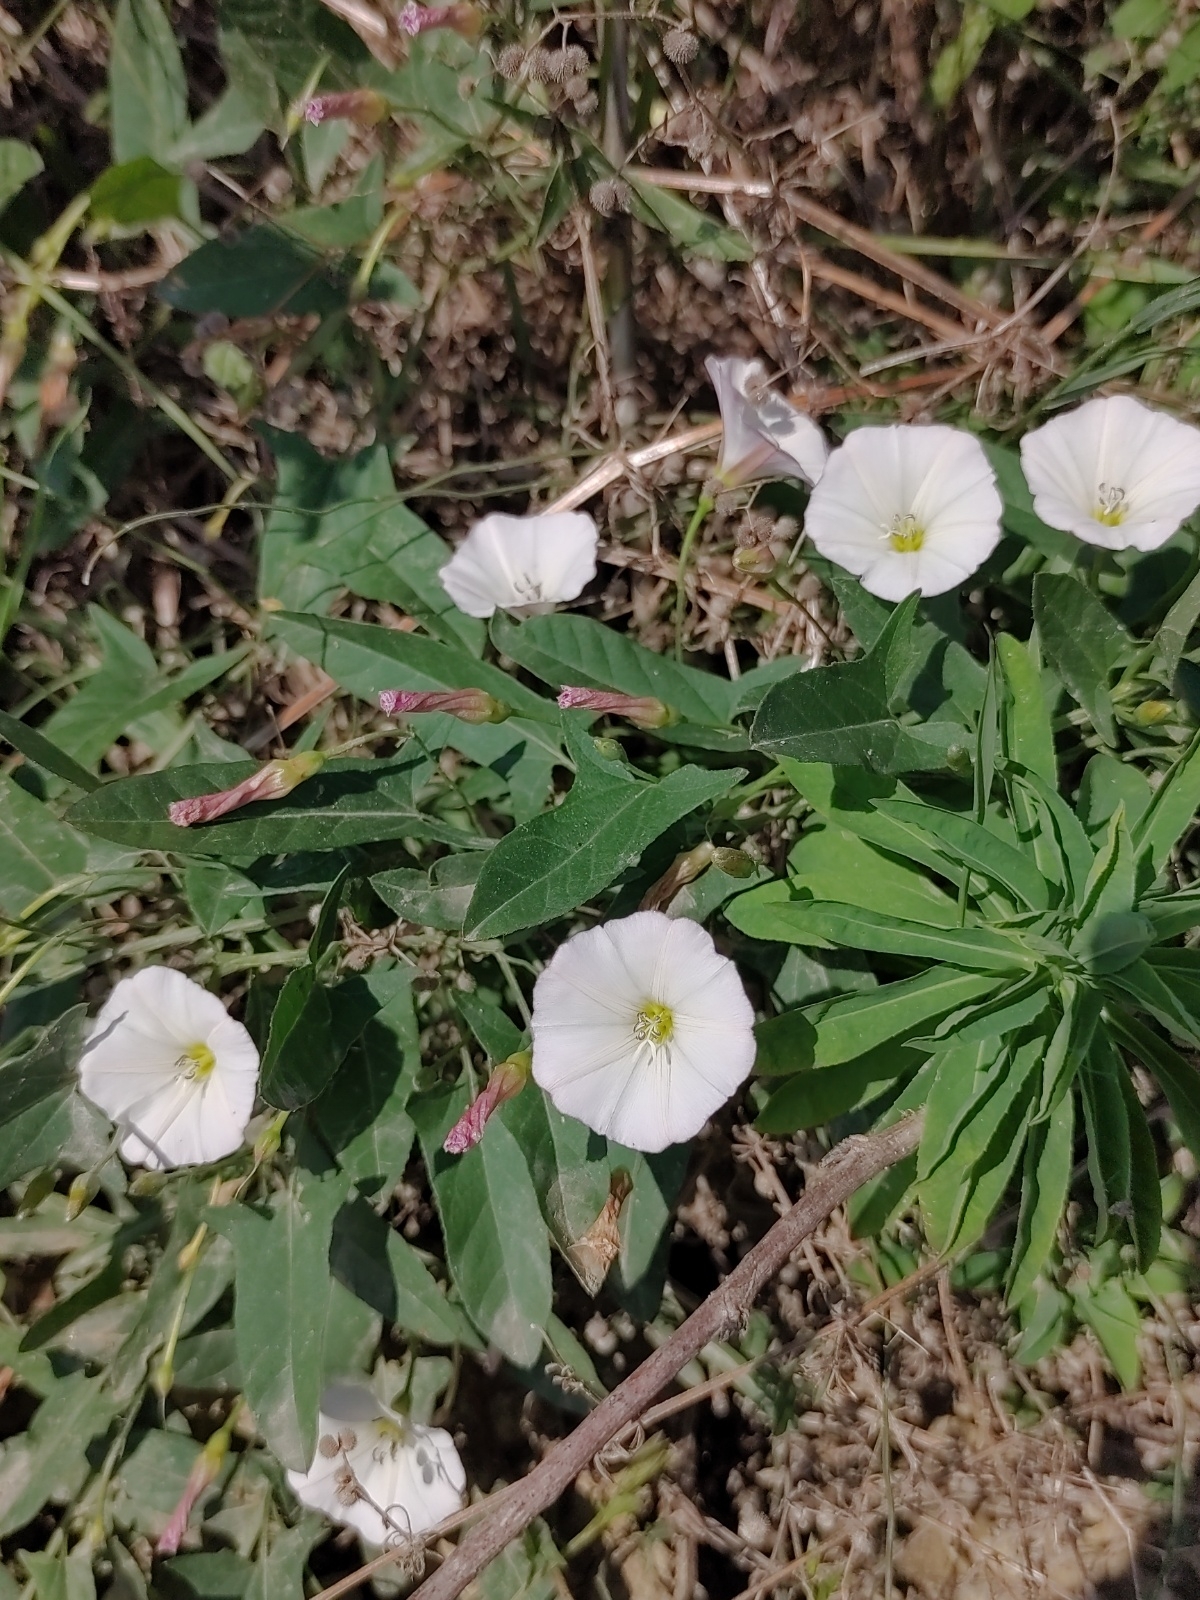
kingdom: Plantae
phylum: Tracheophyta
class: Magnoliopsida
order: Solanales
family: Convolvulaceae
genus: Convolvulus
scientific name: Convolvulus arvensis
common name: Field bindweed
